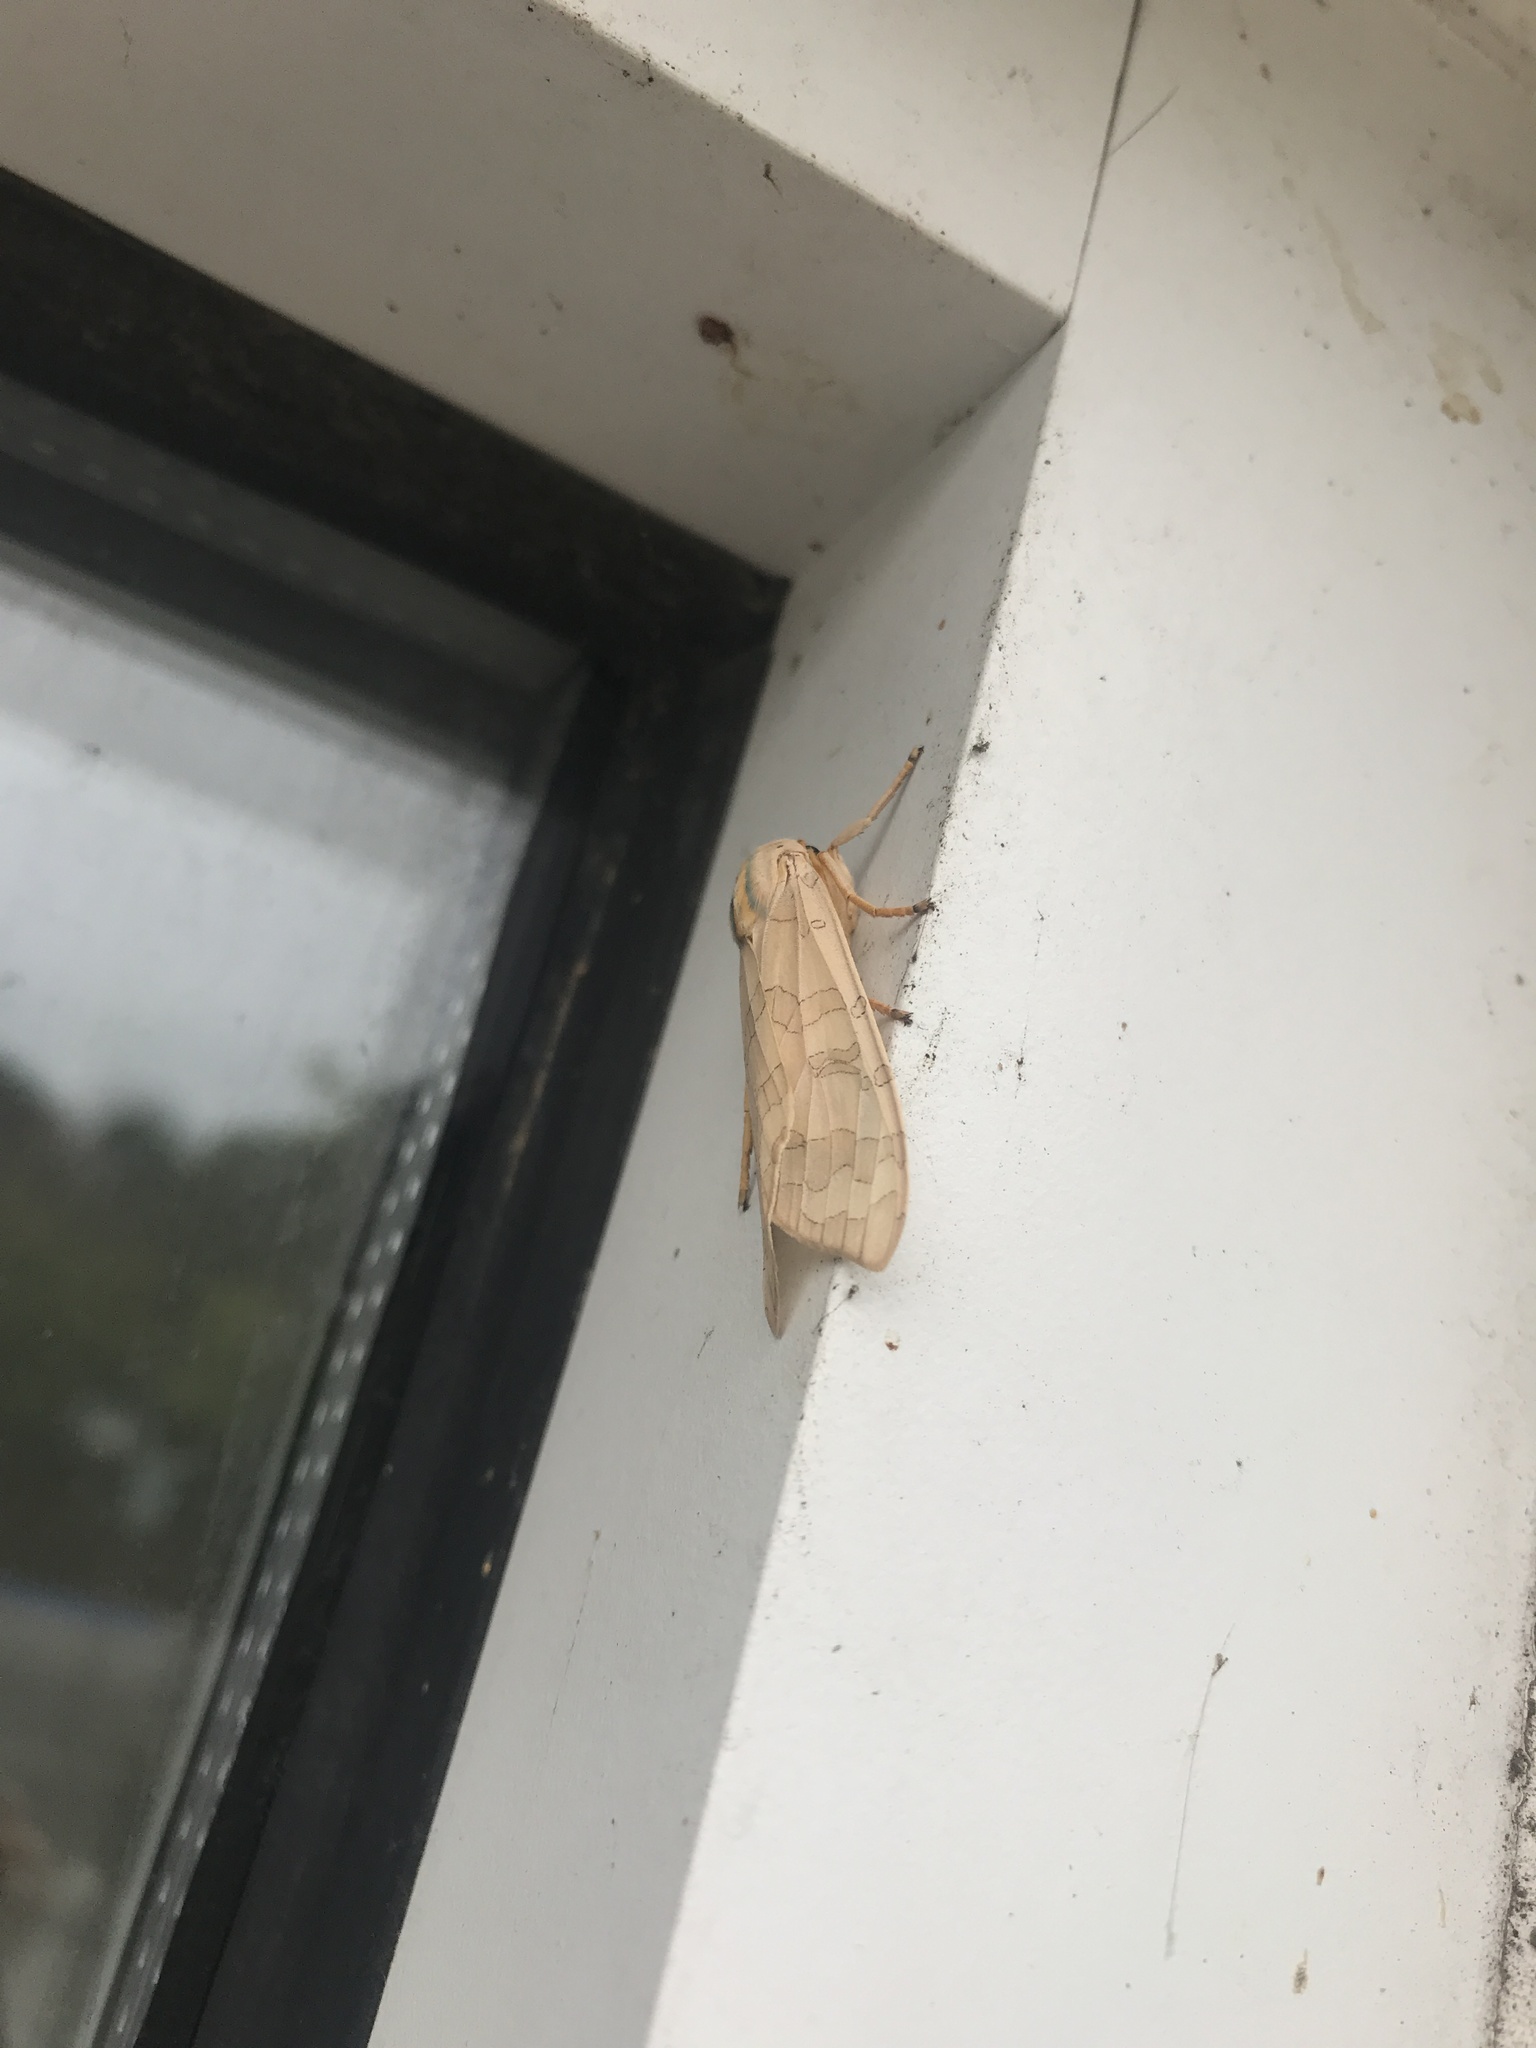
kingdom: Animalia
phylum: Arthropoda
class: Insecta
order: Lepidoptera
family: Erebidae
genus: Halysidota
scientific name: Halysidota
